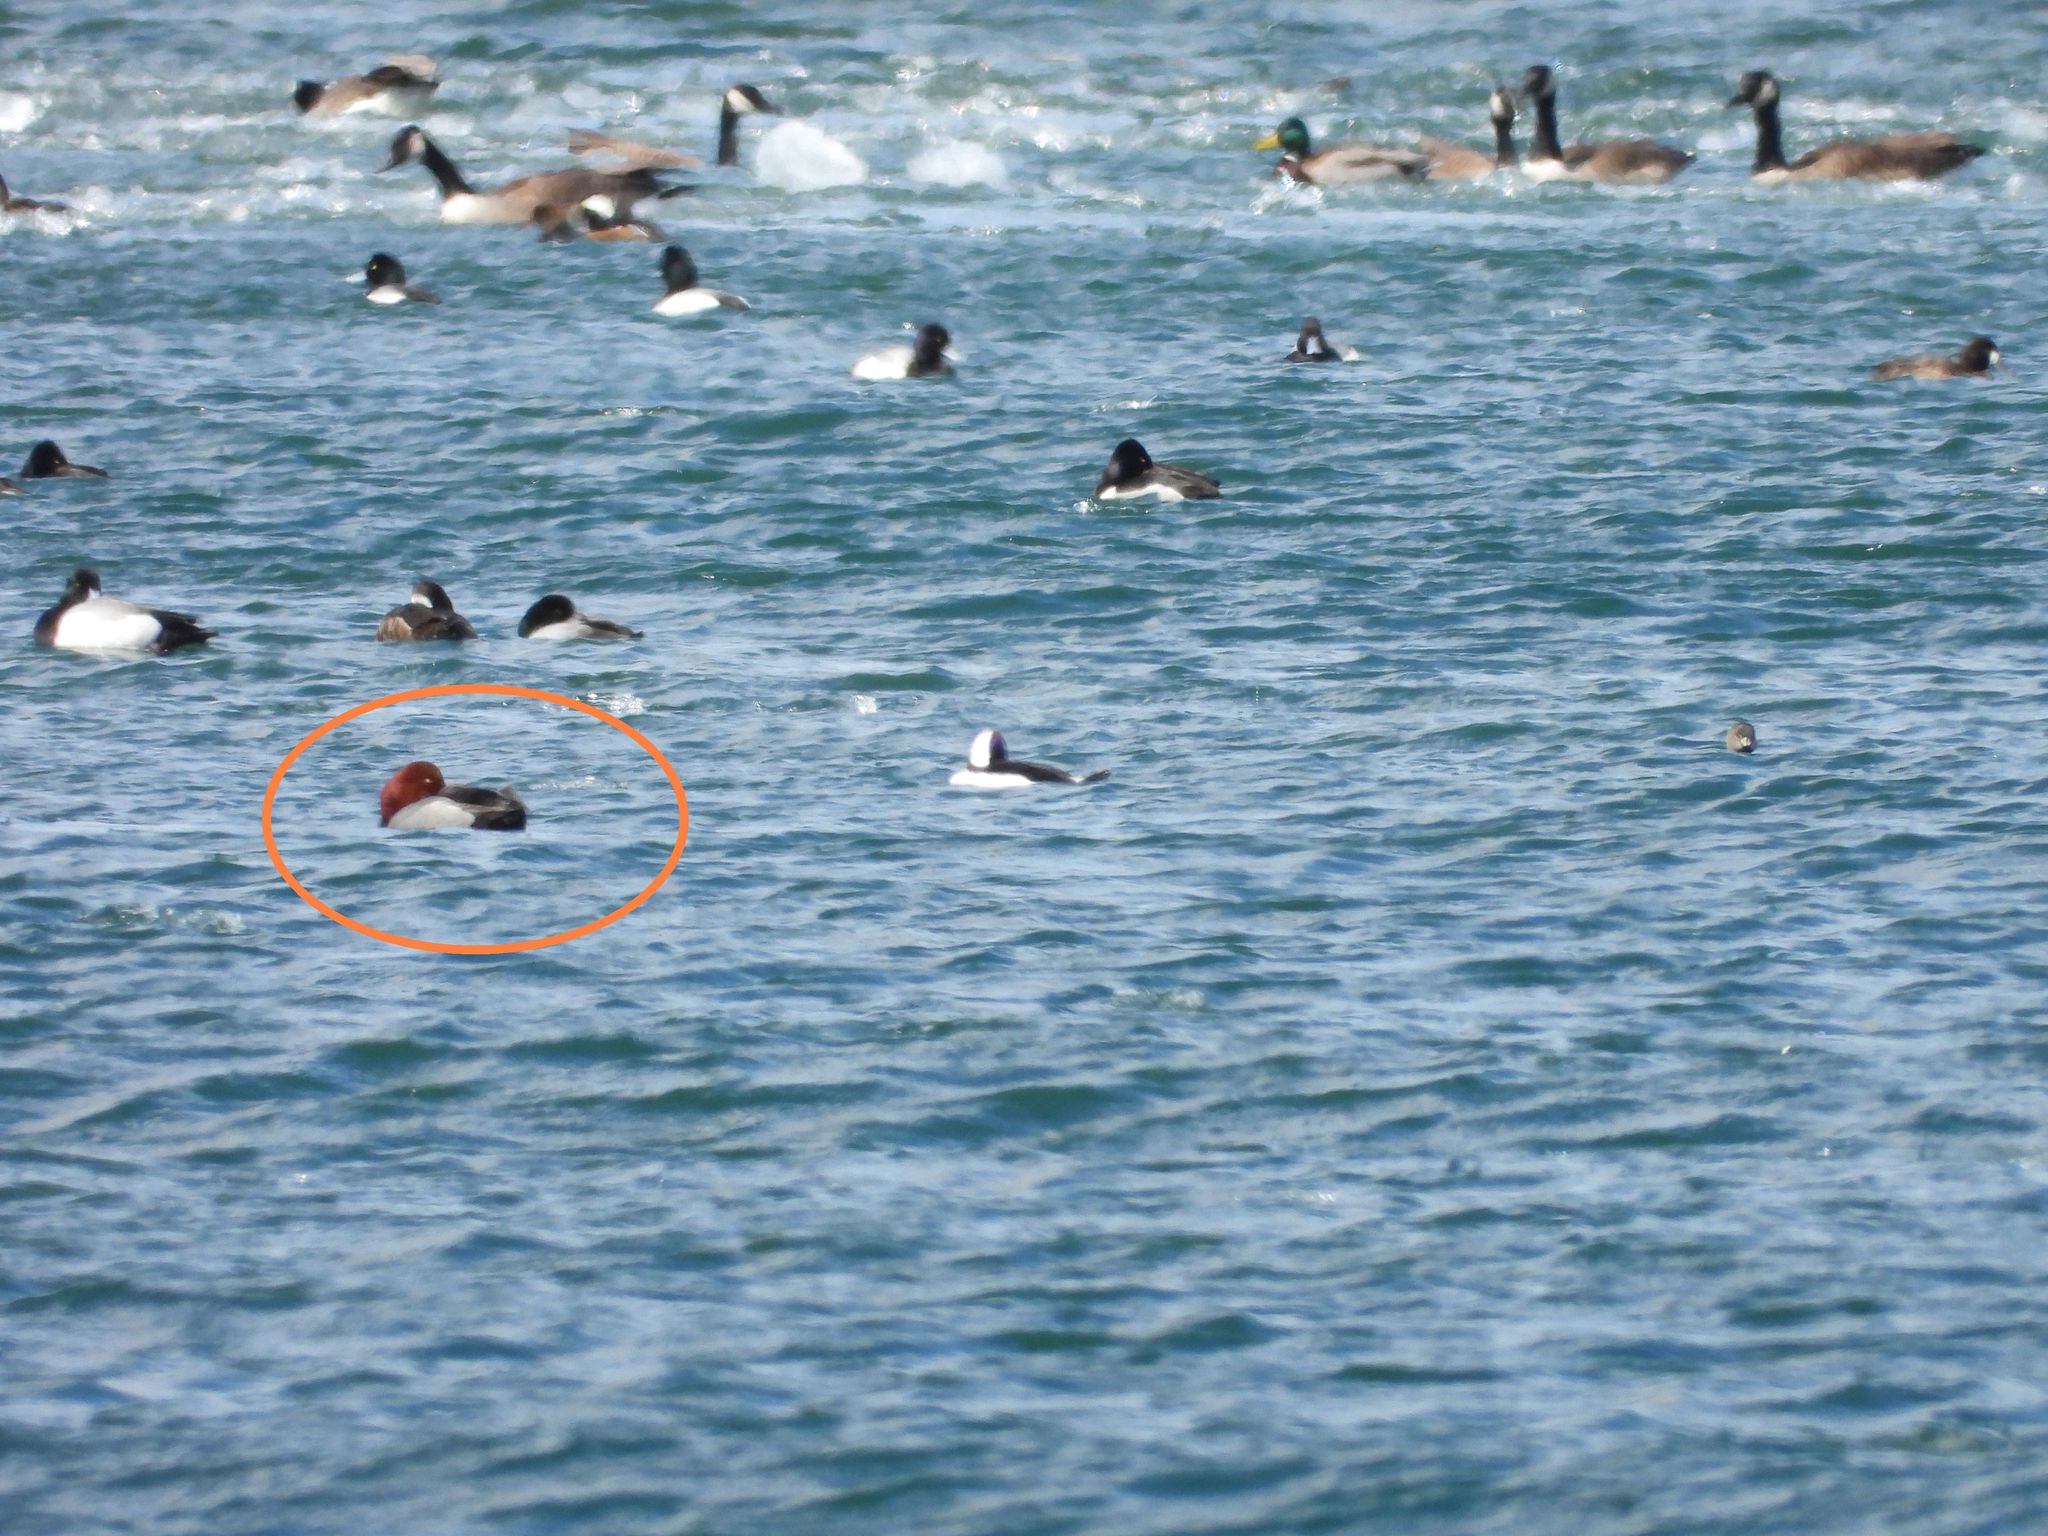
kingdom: Animalia
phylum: Chordata
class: Aves
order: Anseriformes
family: Anatidae
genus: Aythya
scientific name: Aythya americana
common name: Redhead
